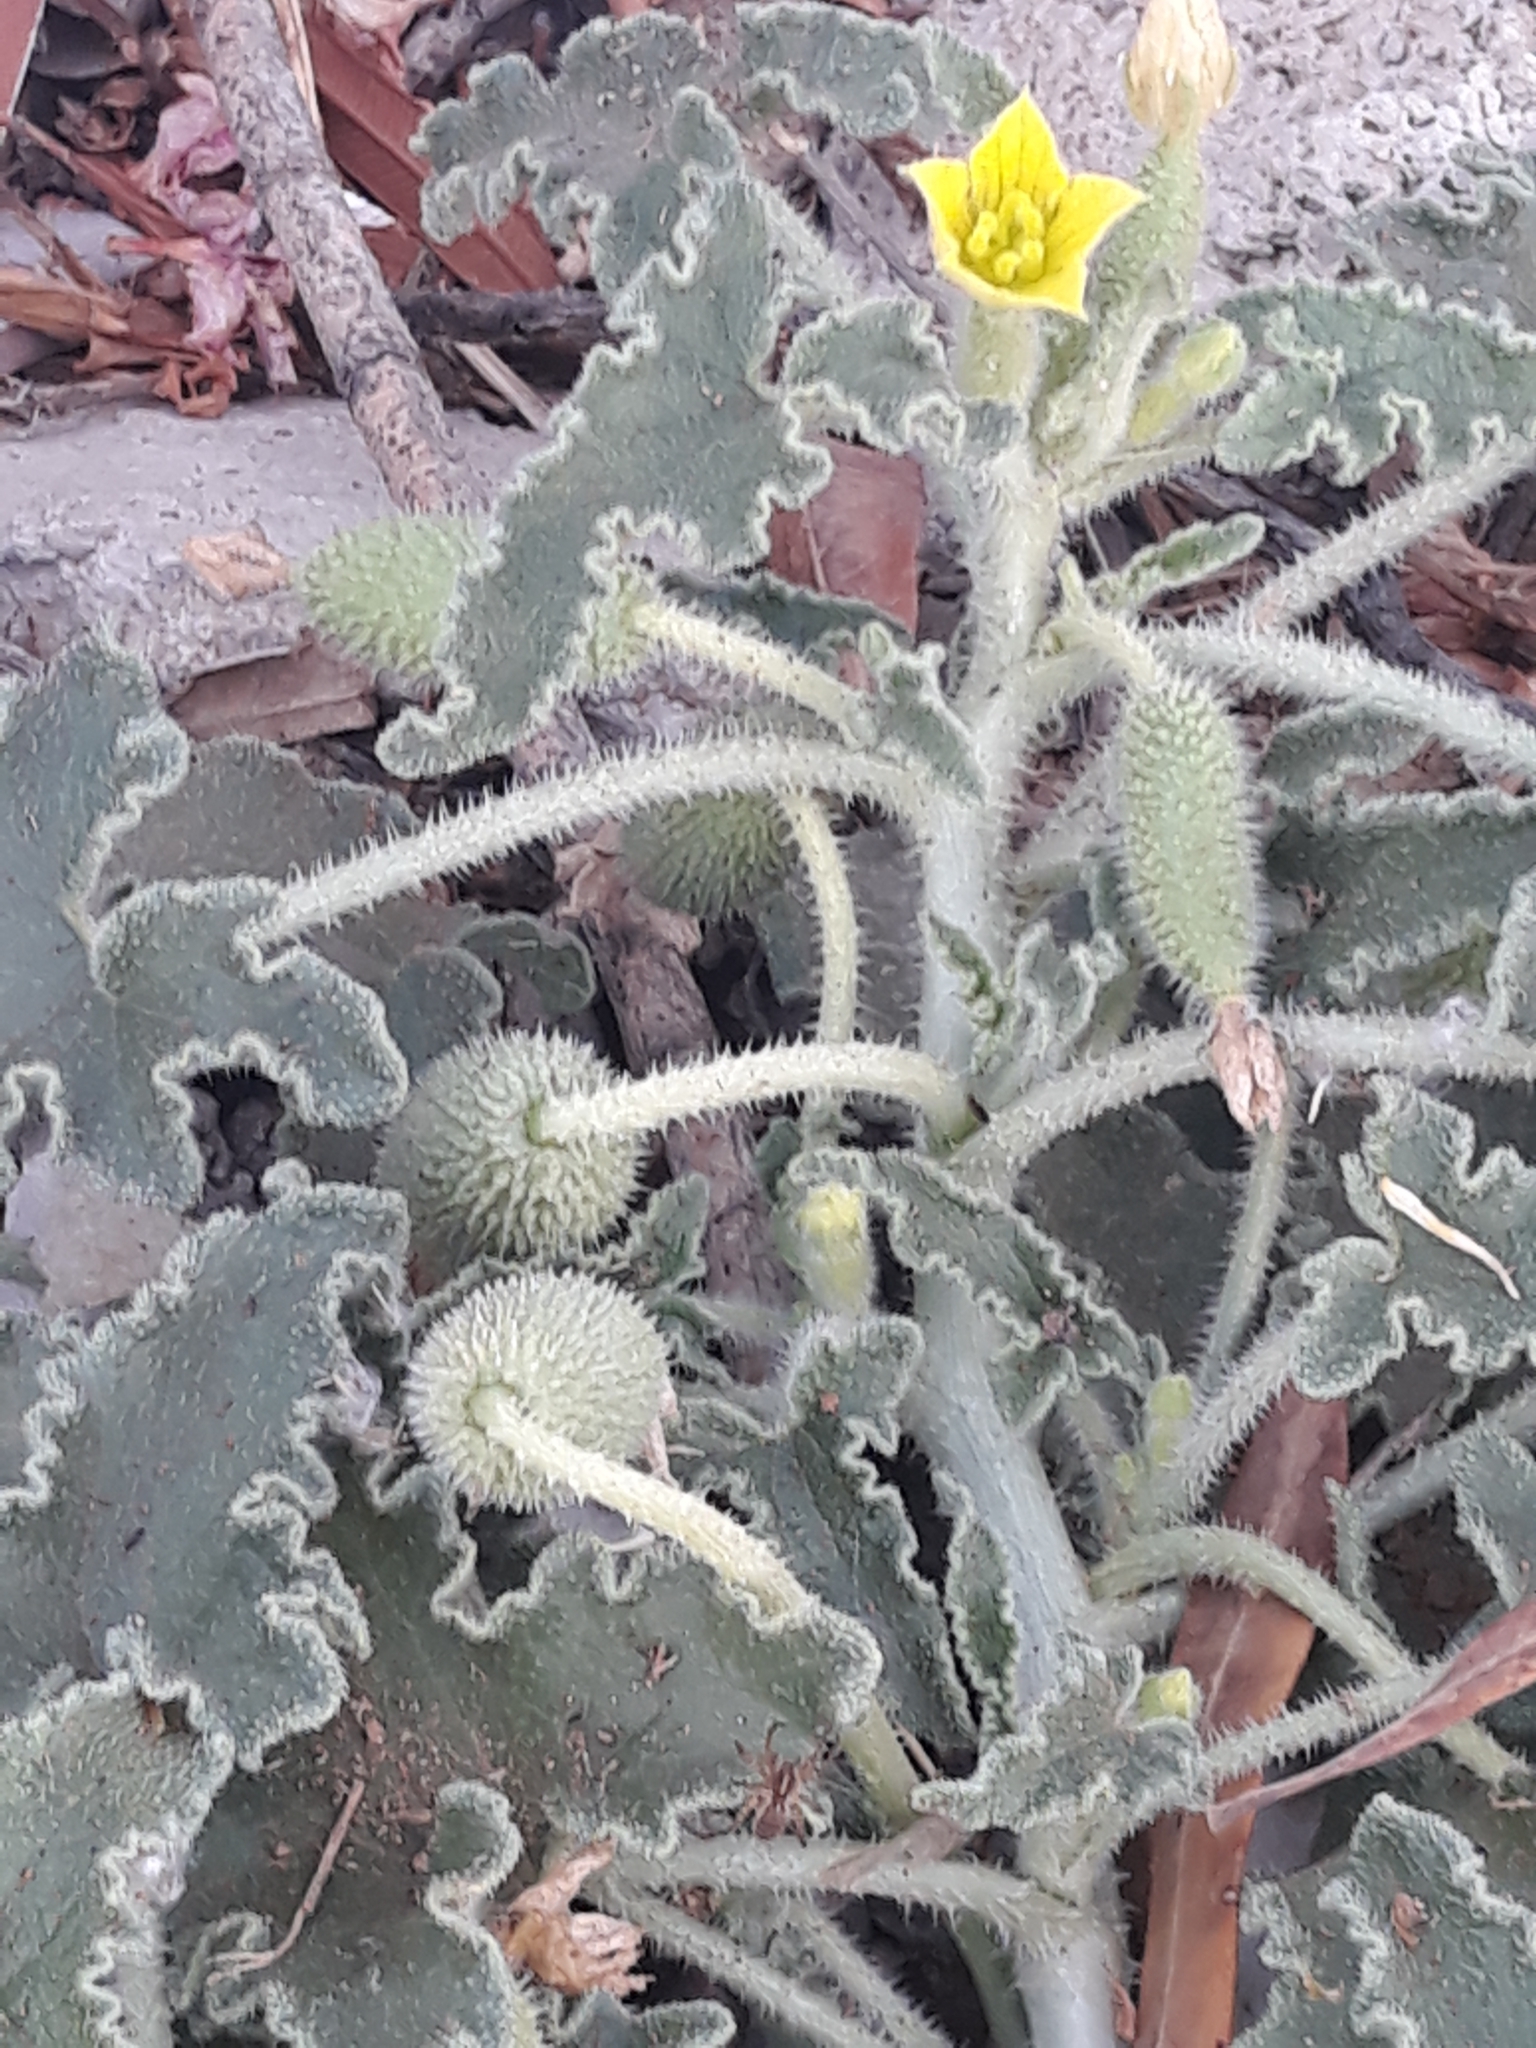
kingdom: Plantae
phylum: Tracheophyta
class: Magnoliopsida
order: Cucurbitales
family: Cucurbitaceae
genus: Ecballium
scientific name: Ecballium elaterium
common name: Squirting cucumber
